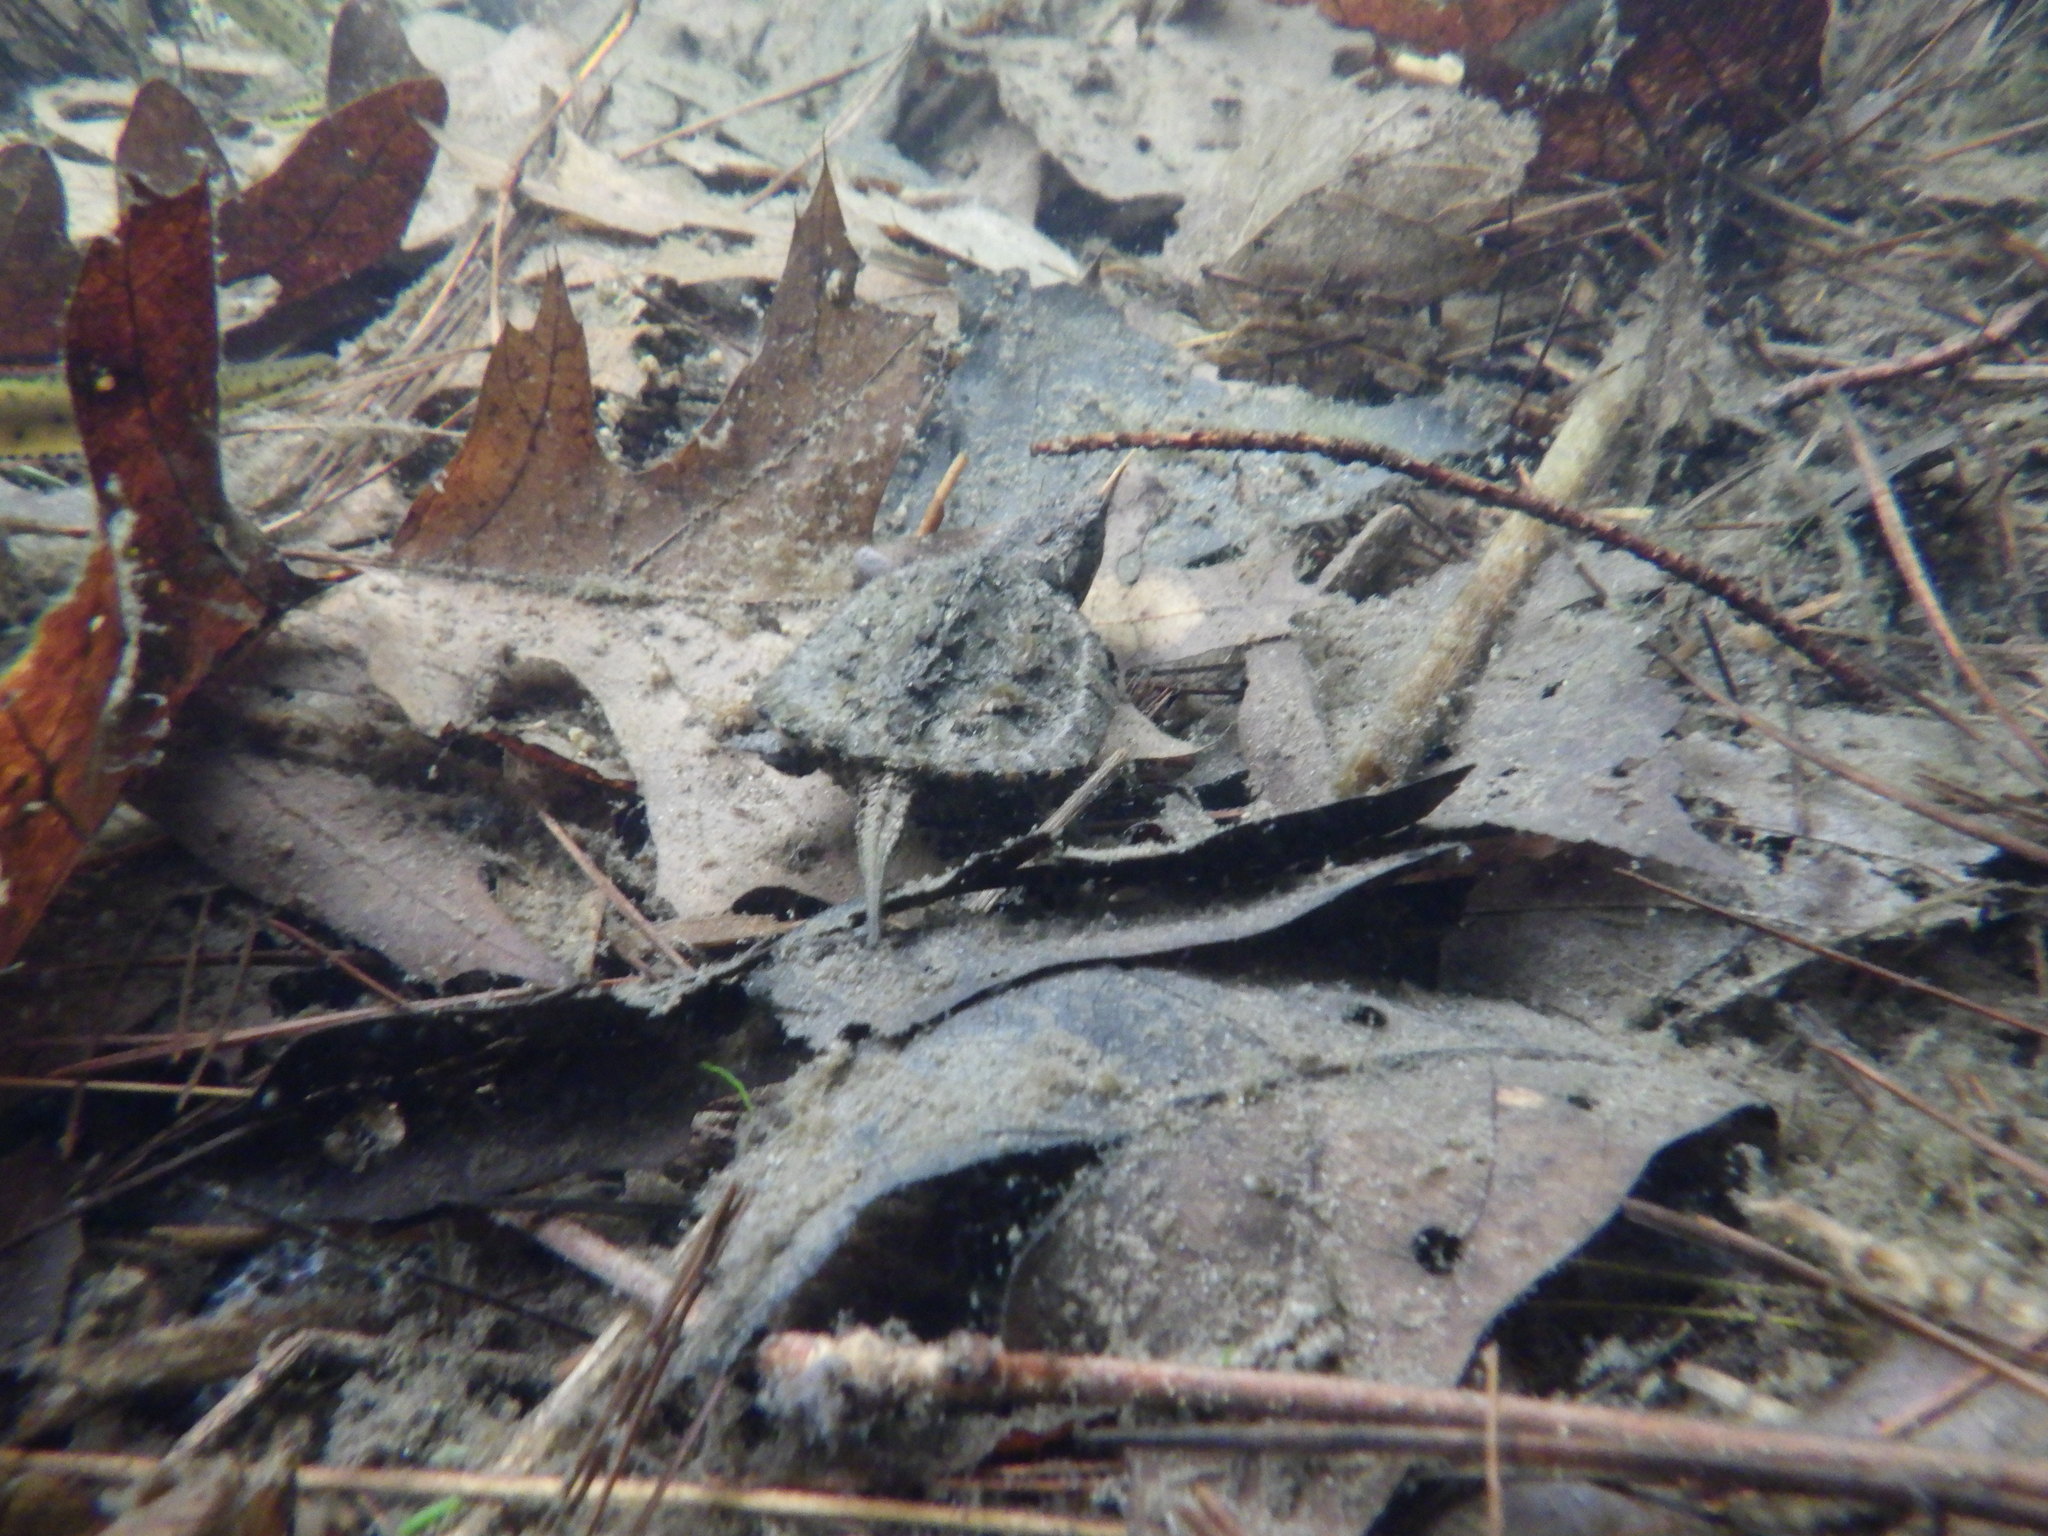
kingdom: Animalia
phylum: Chordata
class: Testudines
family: Chelydridae
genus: Chelydra
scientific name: Chelydra serpentina
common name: Common snapping turtle
